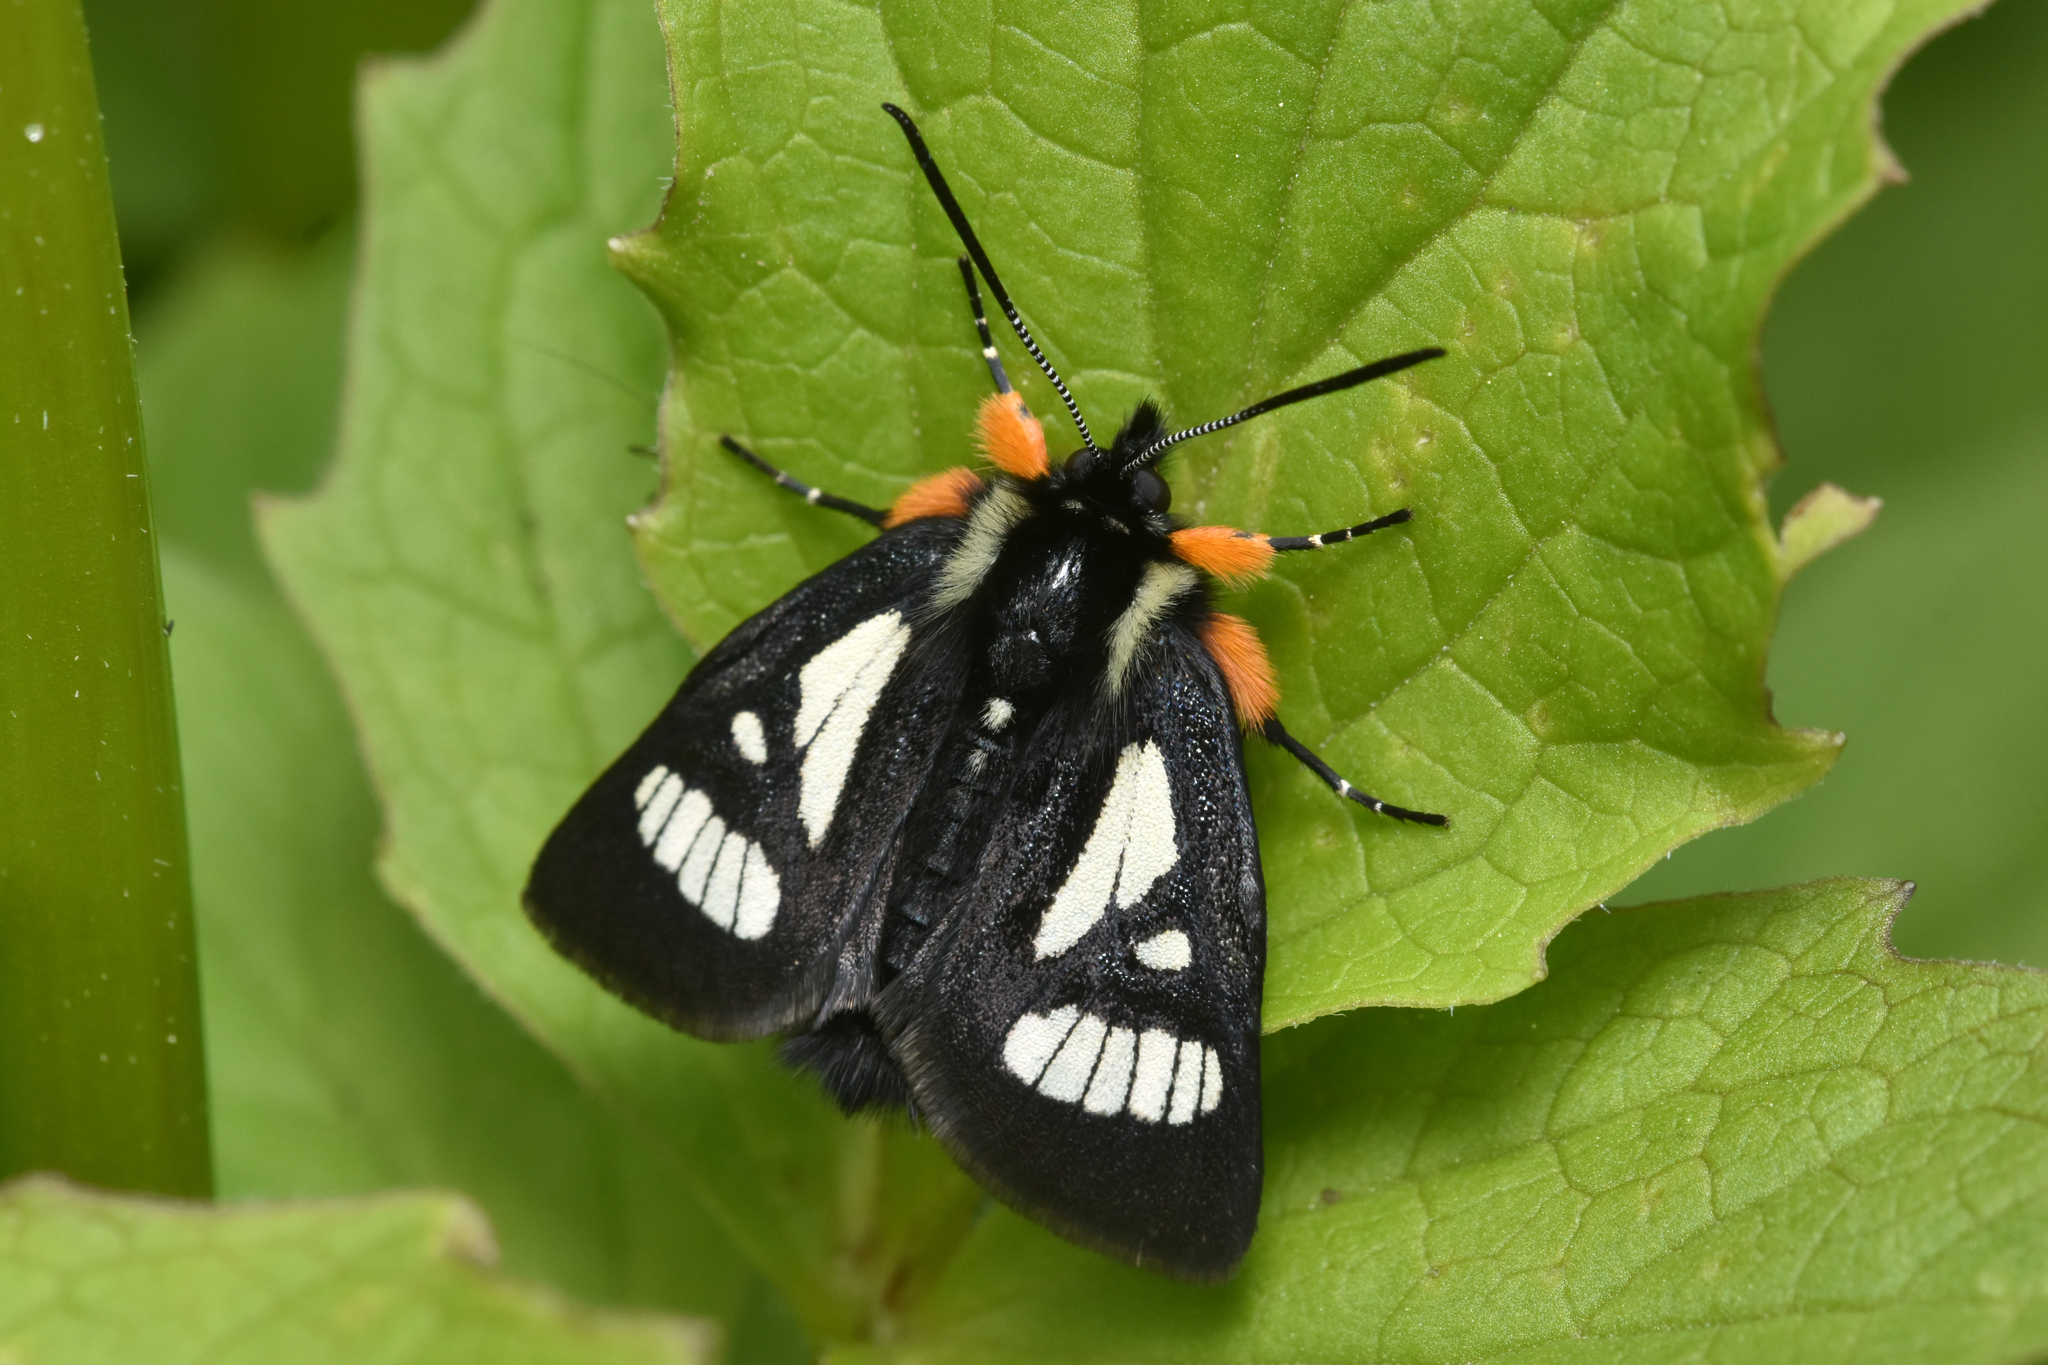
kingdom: Animalia
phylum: Arthropoda
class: Insecta
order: Lepidoptera
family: Noctuidae
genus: Alypia
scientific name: Alypia maccullochii
